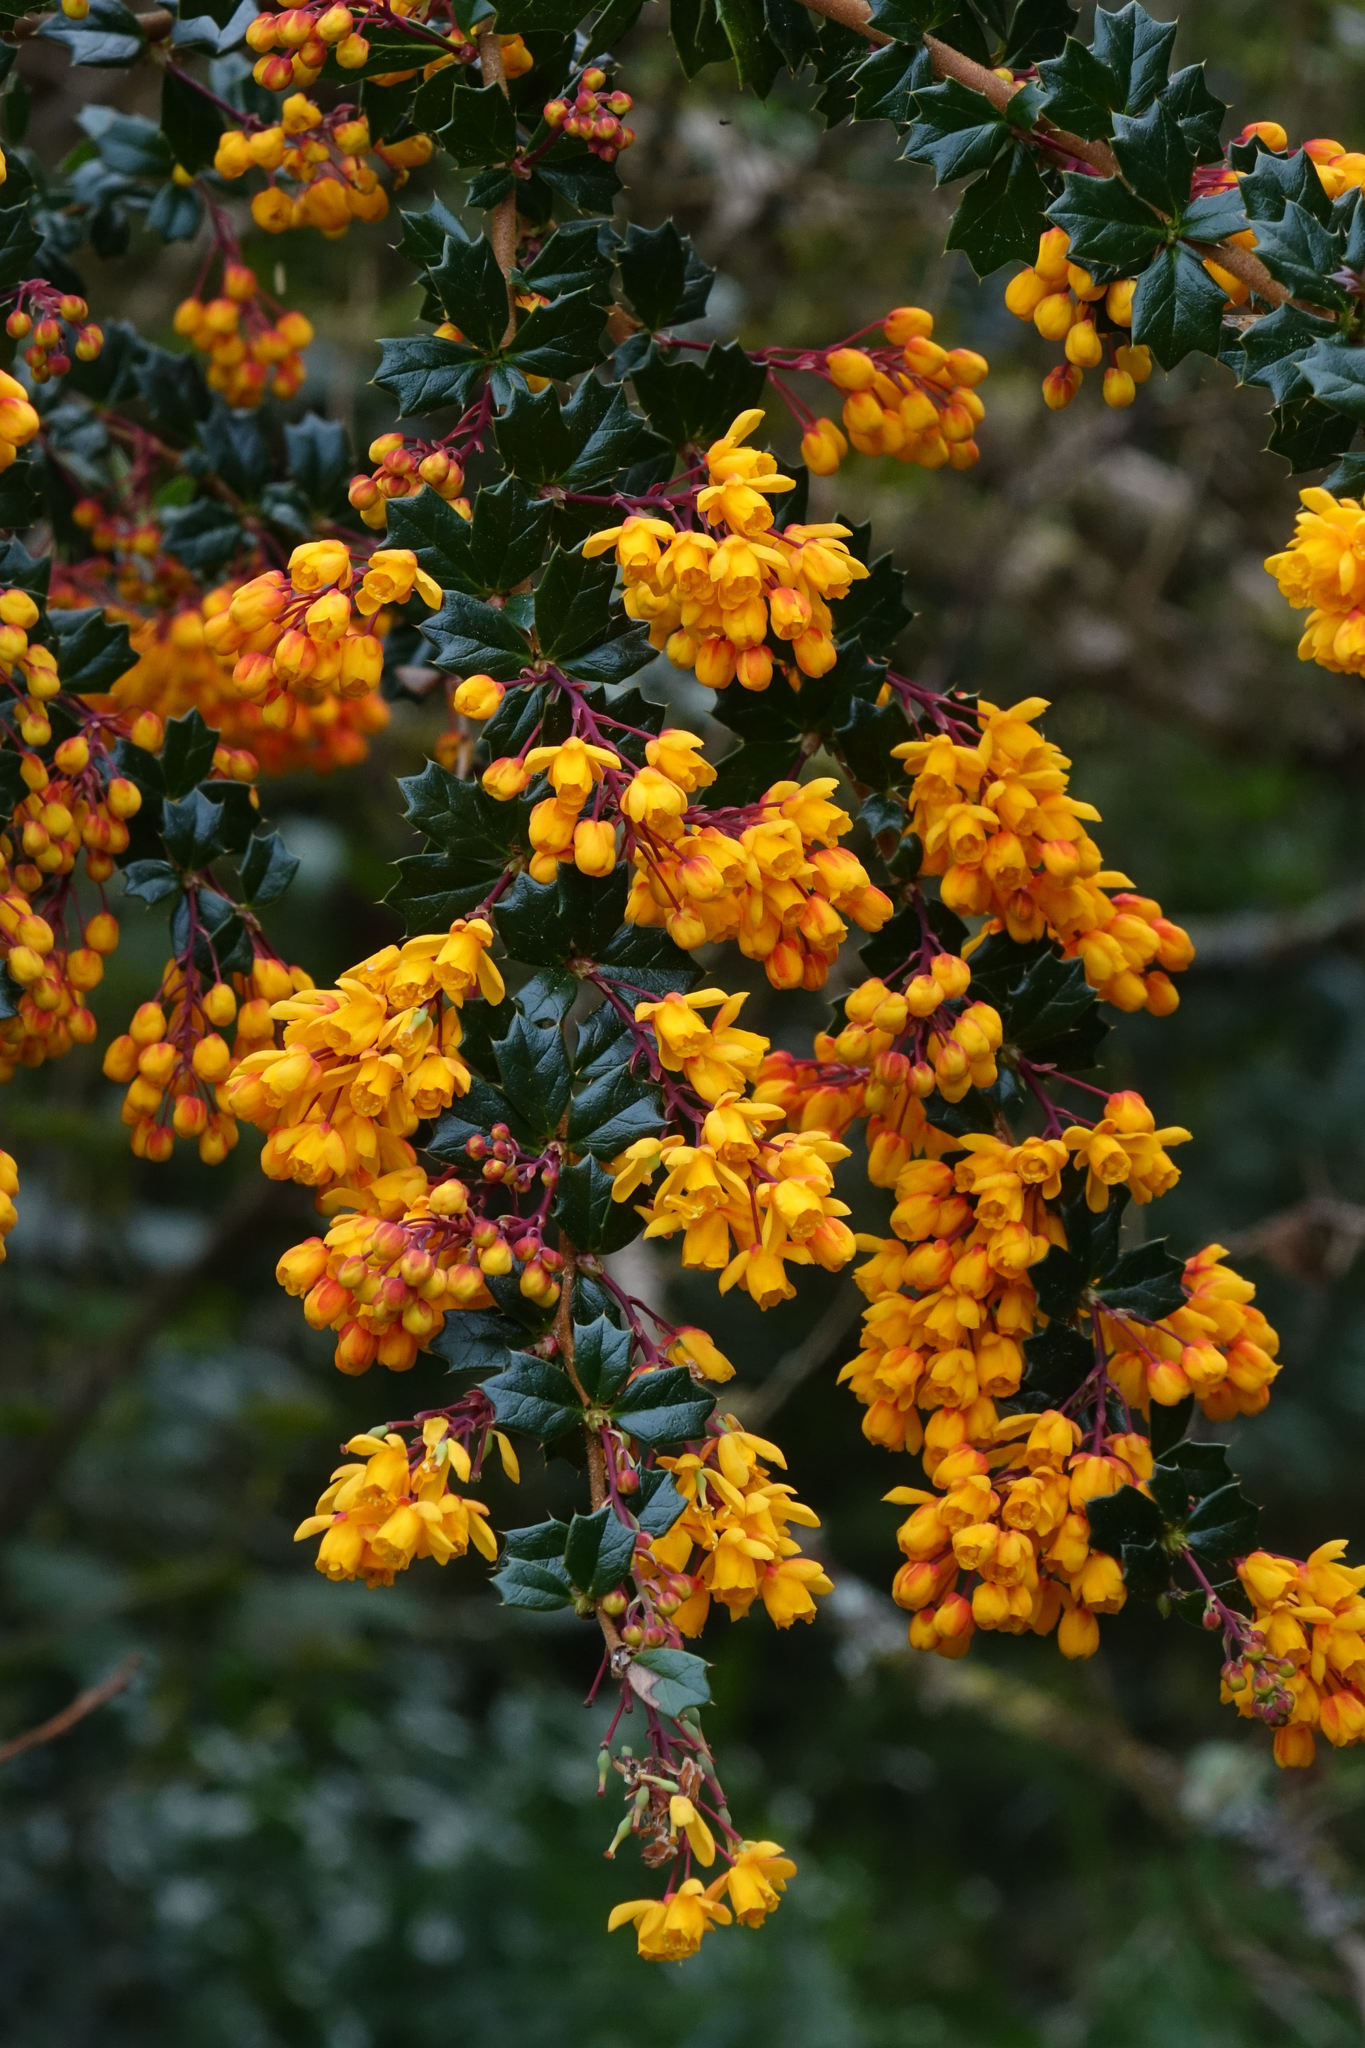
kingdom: Plantae
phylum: Tracheophyta
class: Magnoliopsida
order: Ranunculales
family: Berberidaceae
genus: Berberis
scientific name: Berberis darwinii
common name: Darwin's barberry
